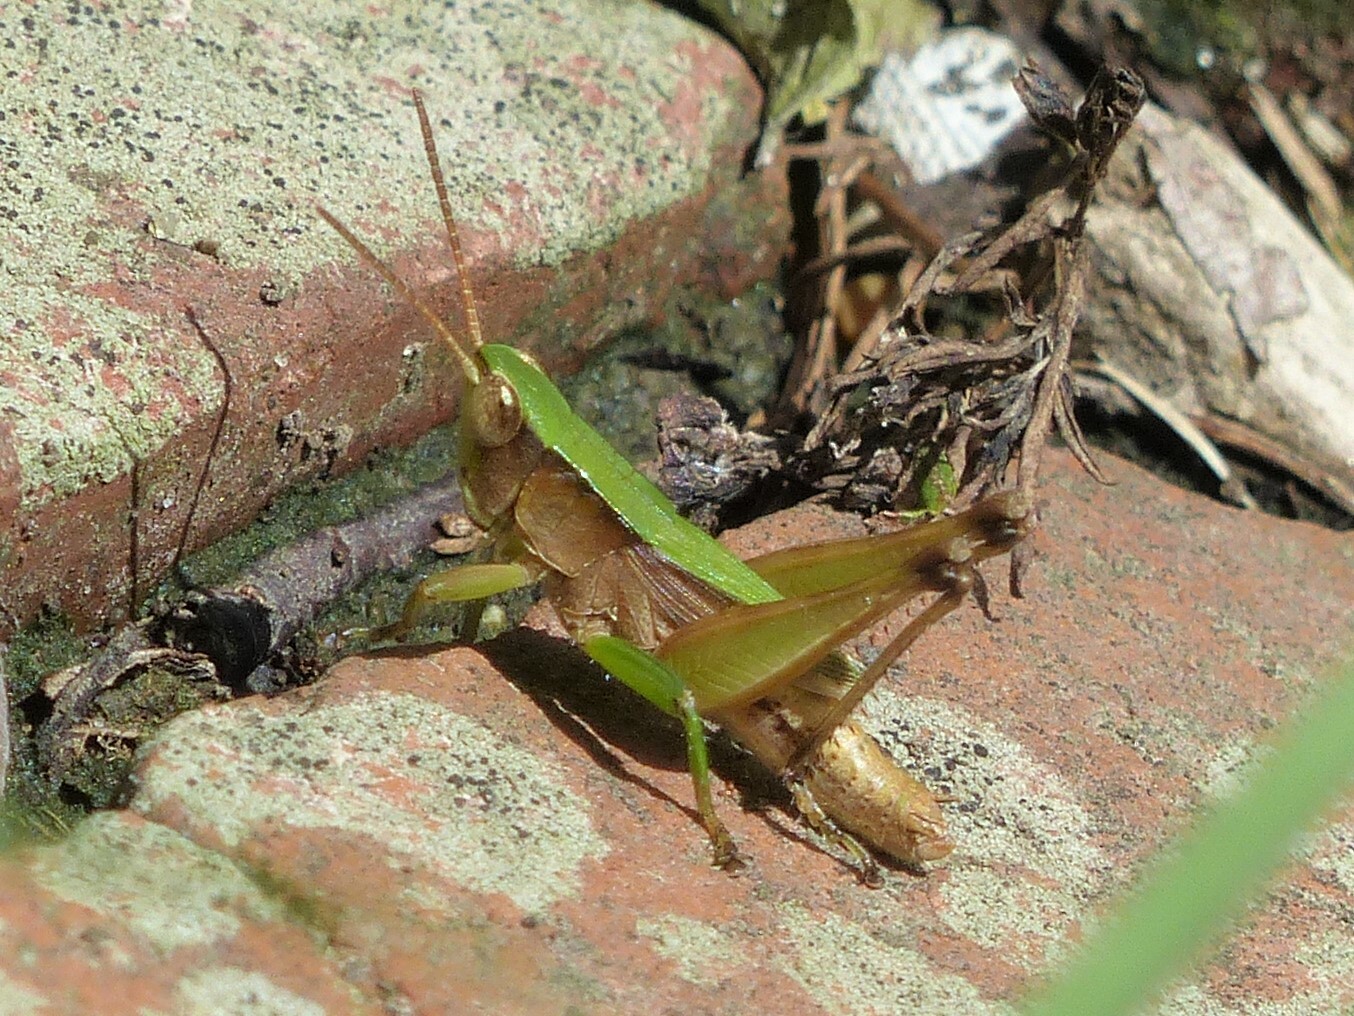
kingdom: Animalia
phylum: Arthropoda
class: Insecta
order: Orthoptera
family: Acrididae
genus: Dichromorpha
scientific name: Dichromorpha viridis
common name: Short-winged green grasshopper
